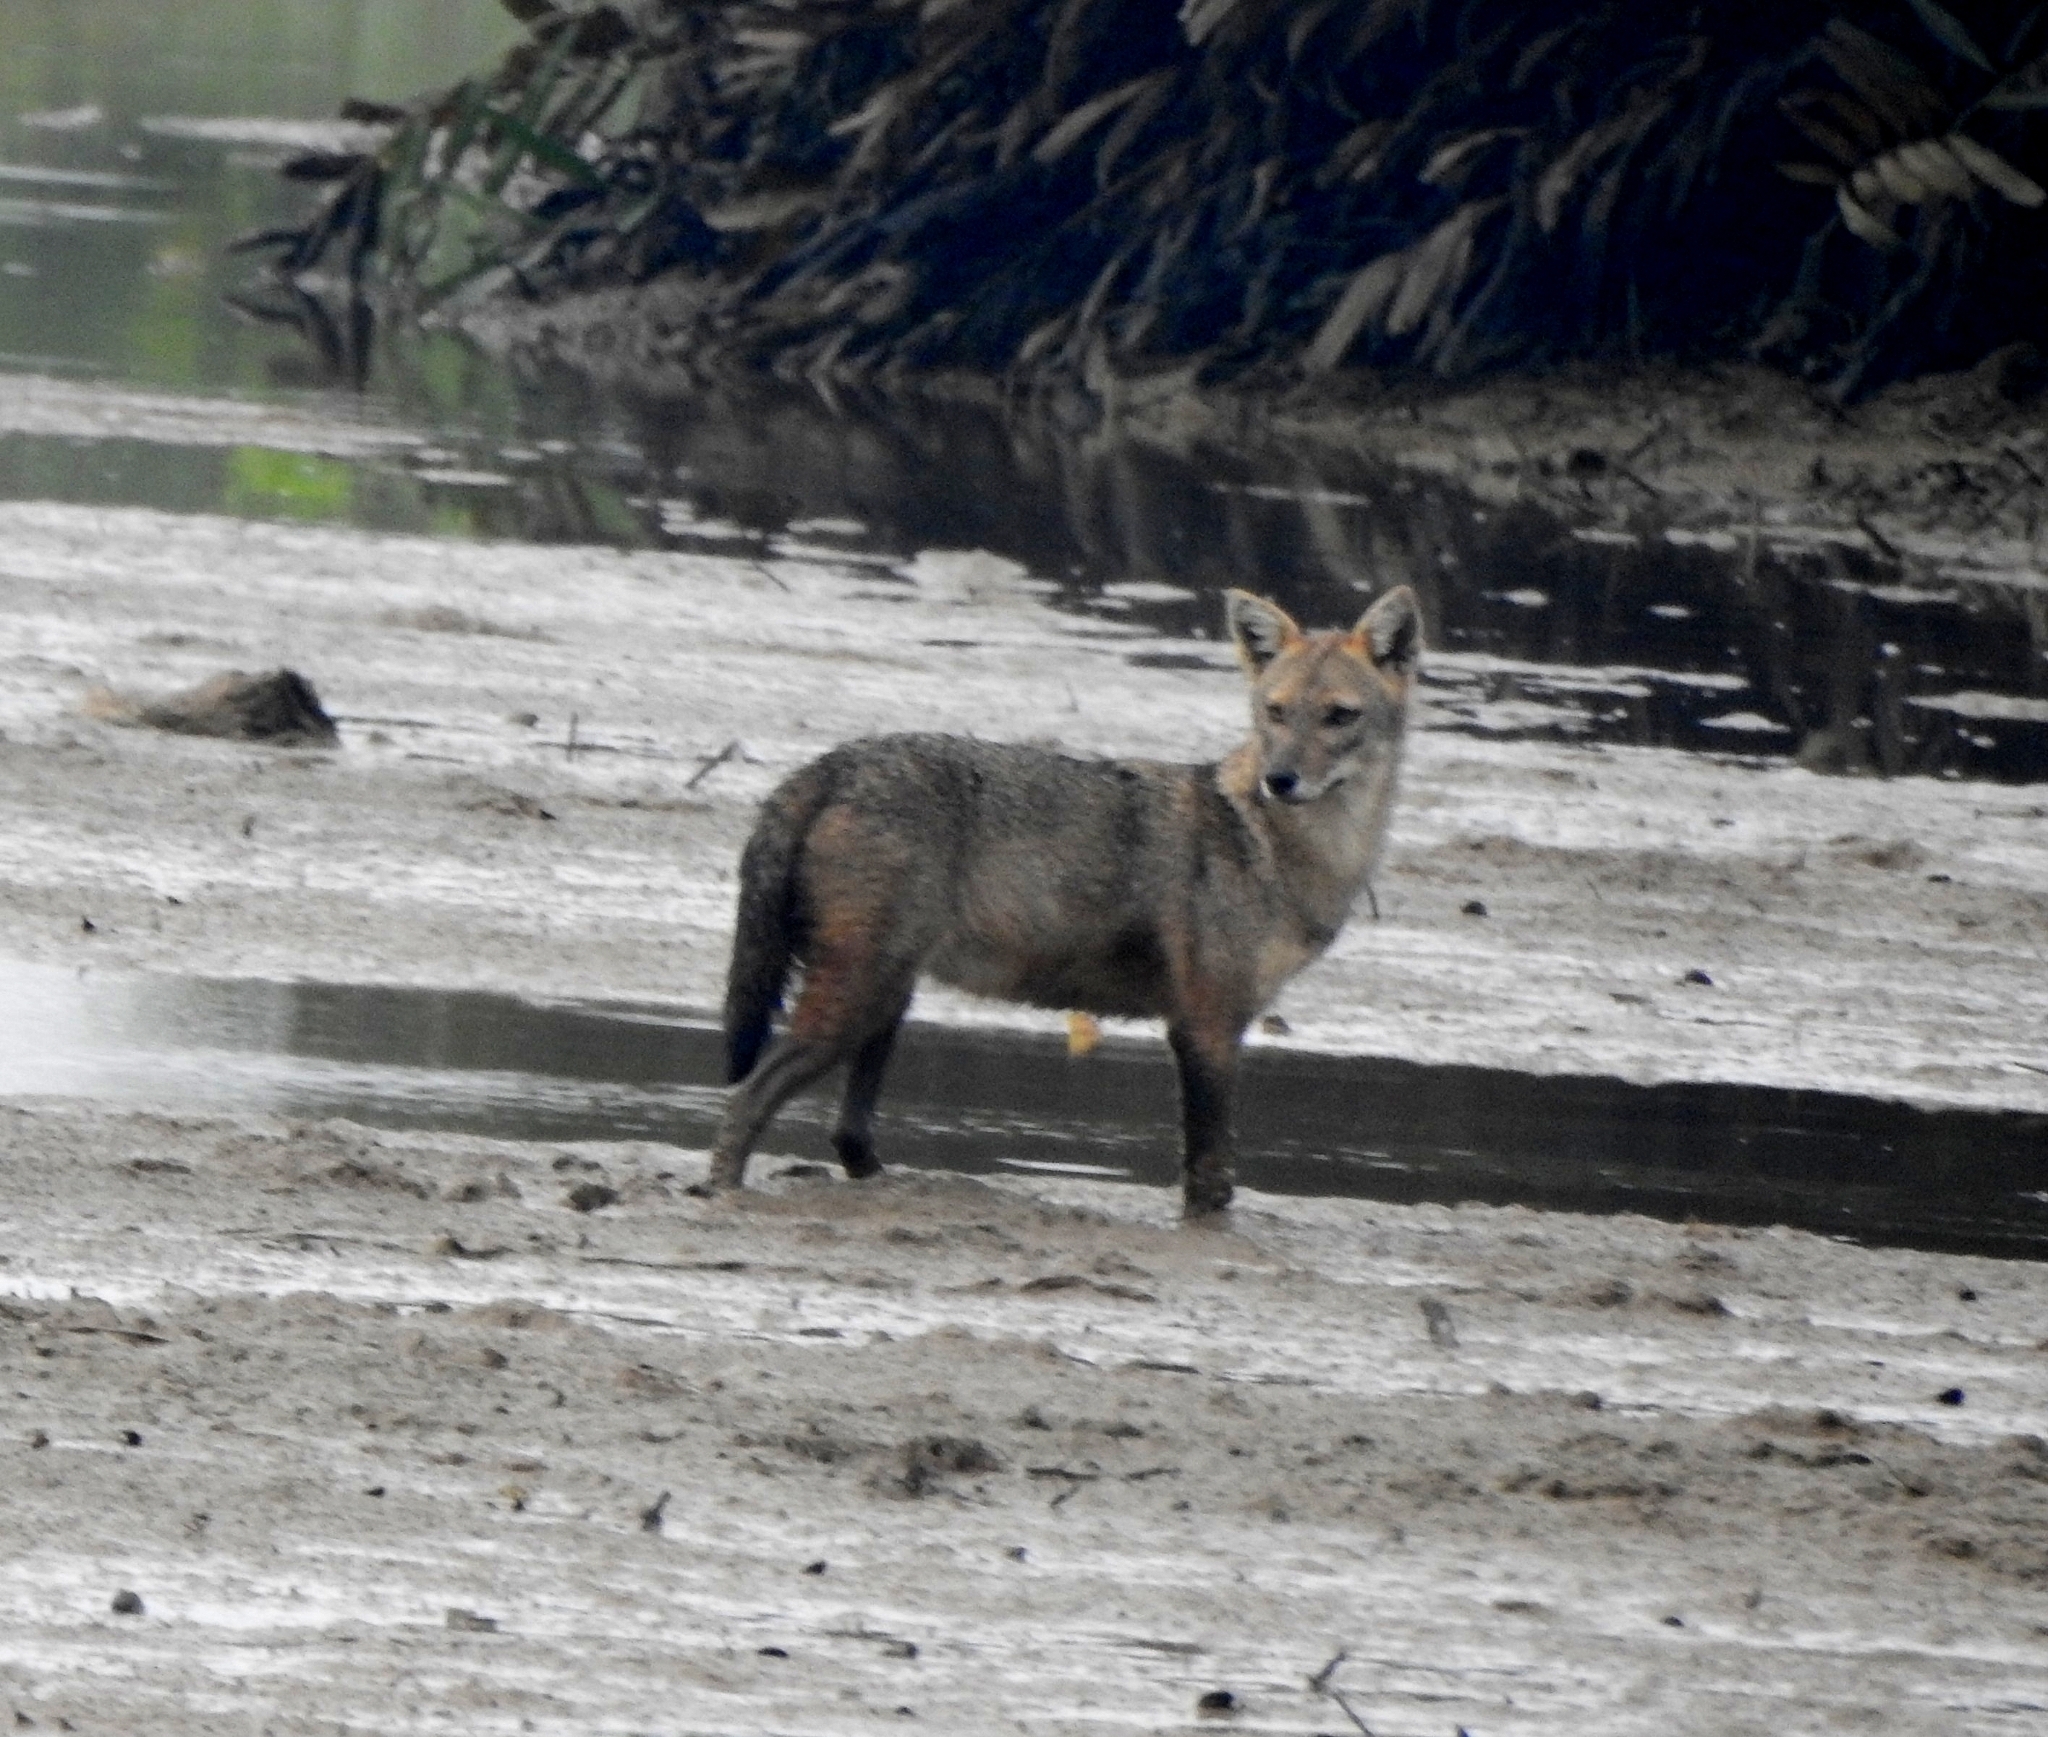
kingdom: Animalia
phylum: Chordata
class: Mammalia
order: Carnivora
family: Canidae
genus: Canis
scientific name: Canis aureus
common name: Golden jackal
